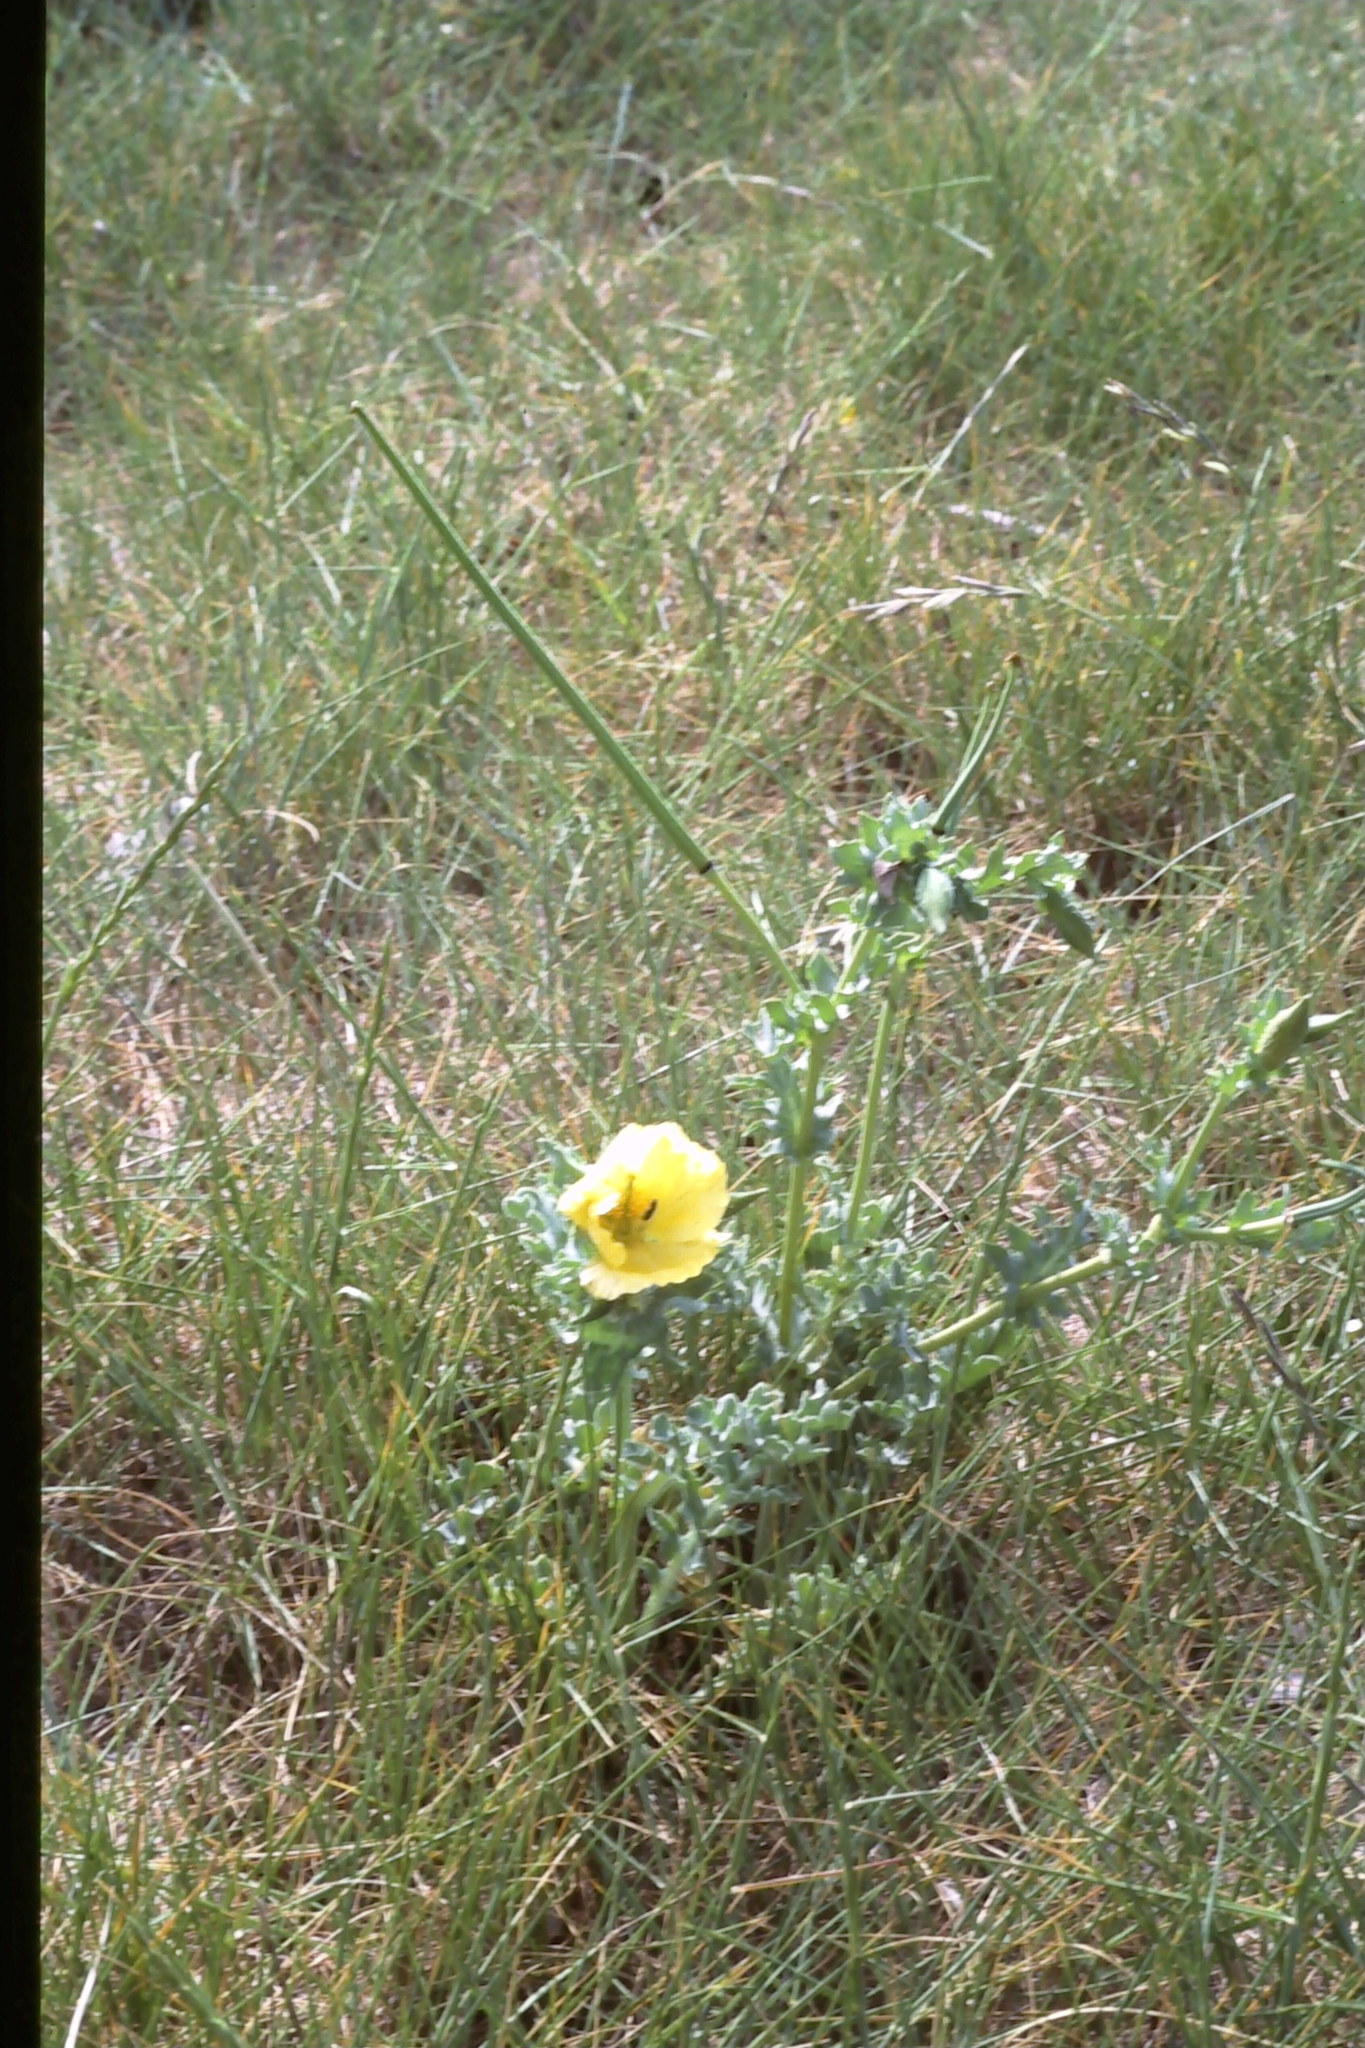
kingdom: Plantae
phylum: Tracheophyta
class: Magnoliopsida
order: Ranunculales
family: Papaveraceae
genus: Glaucium
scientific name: Glaucium flavum
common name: Yellow horned-poppy
